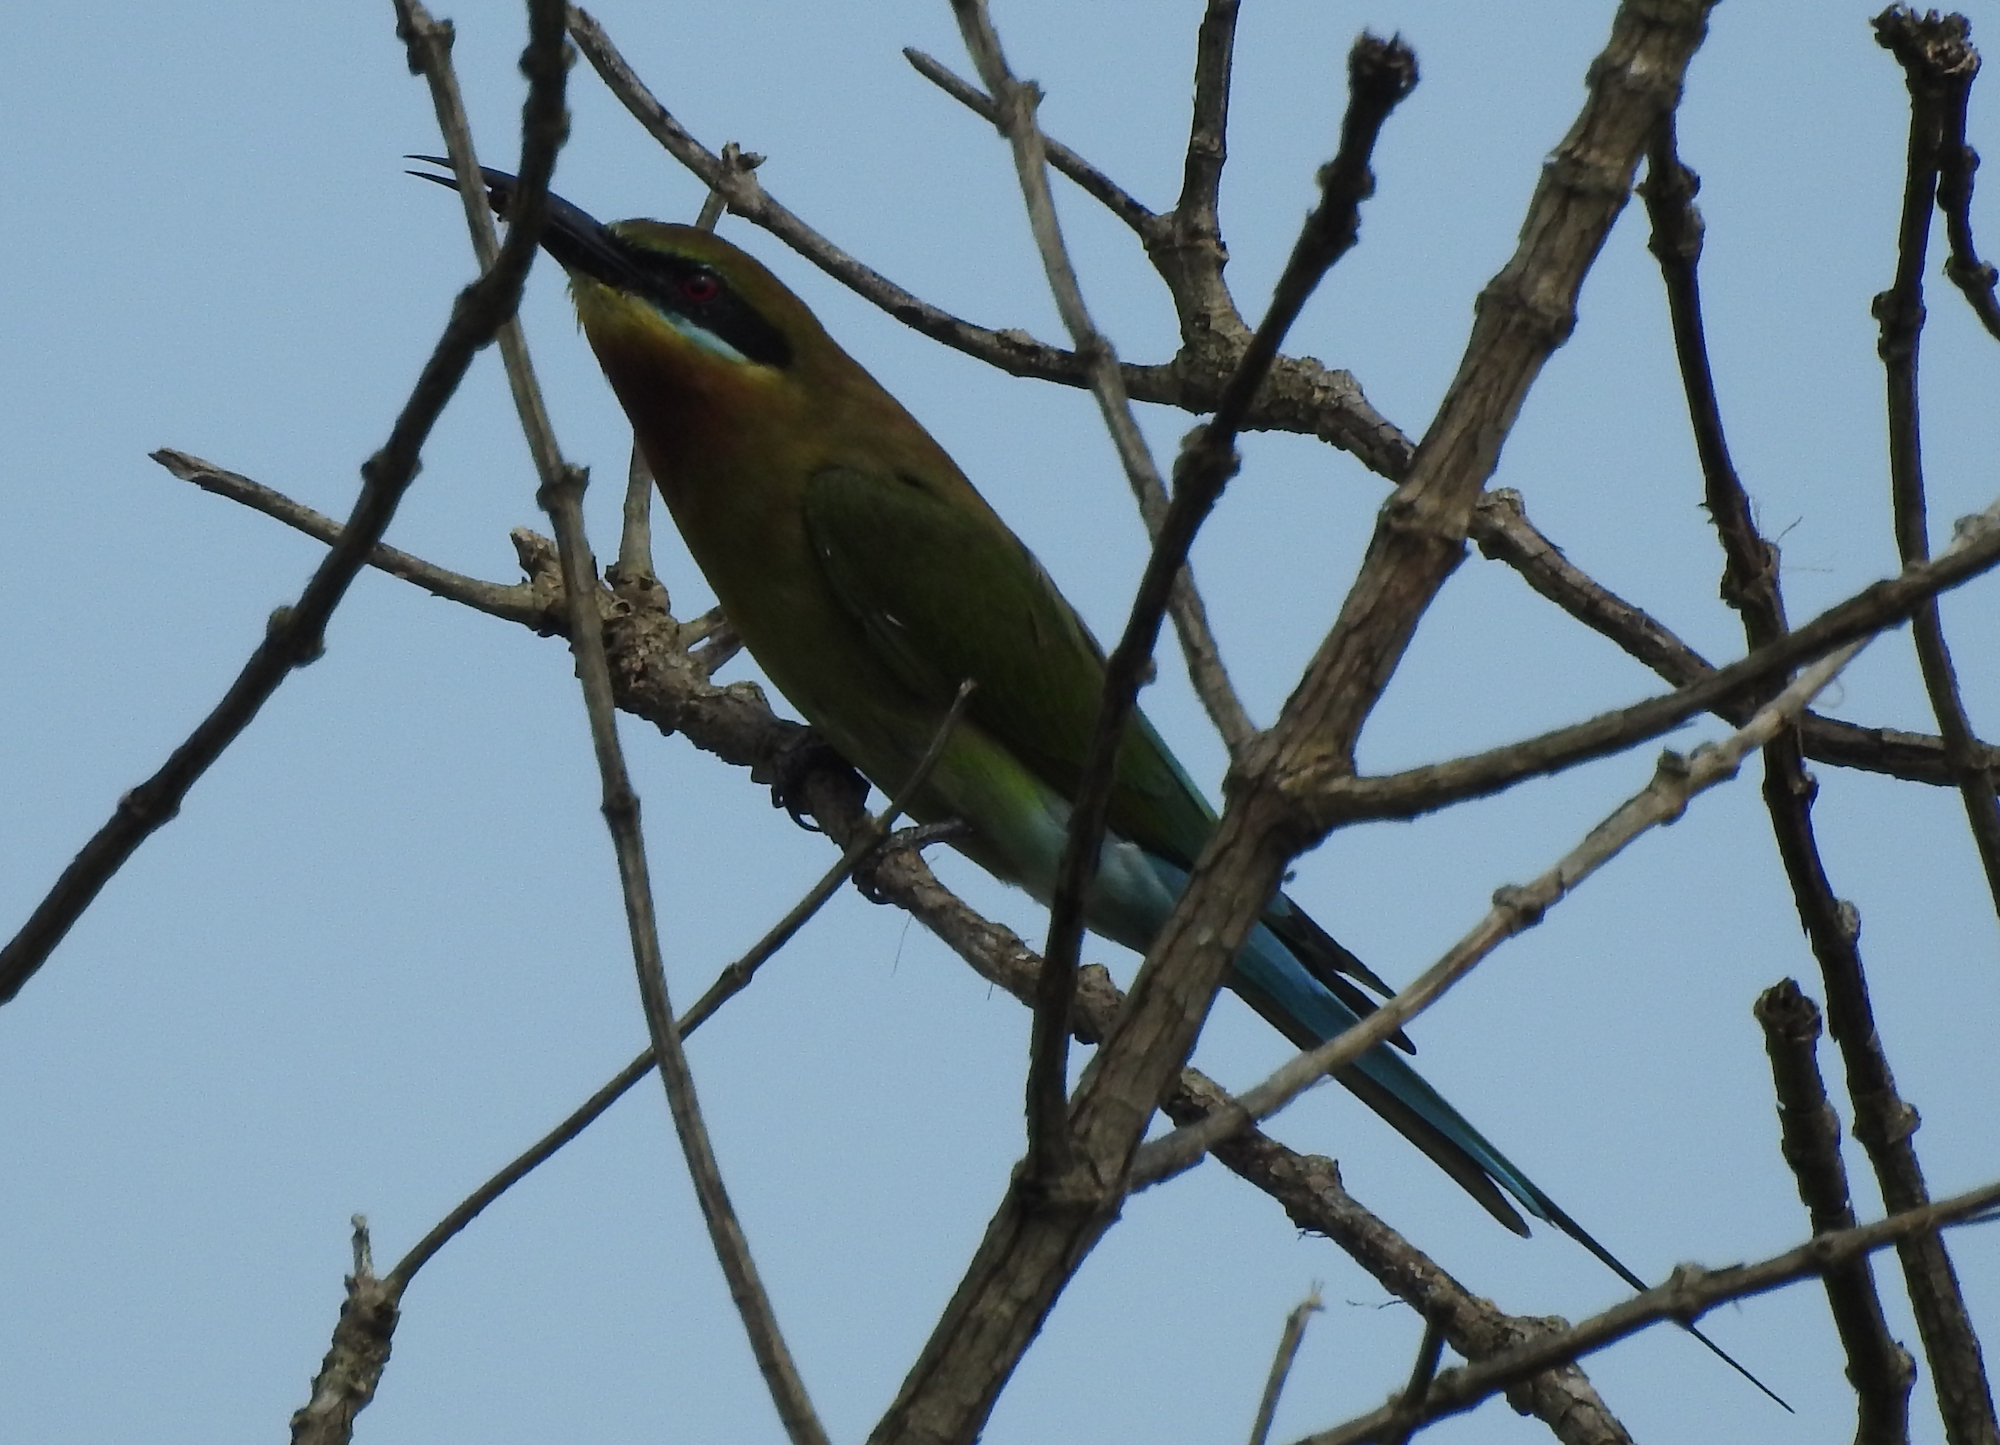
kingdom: Animalia
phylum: Chordata
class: Aves
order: Coraciiformes
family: Meropidae
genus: Merops
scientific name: Merops philippinus
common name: Blue-tailed bee-eater
